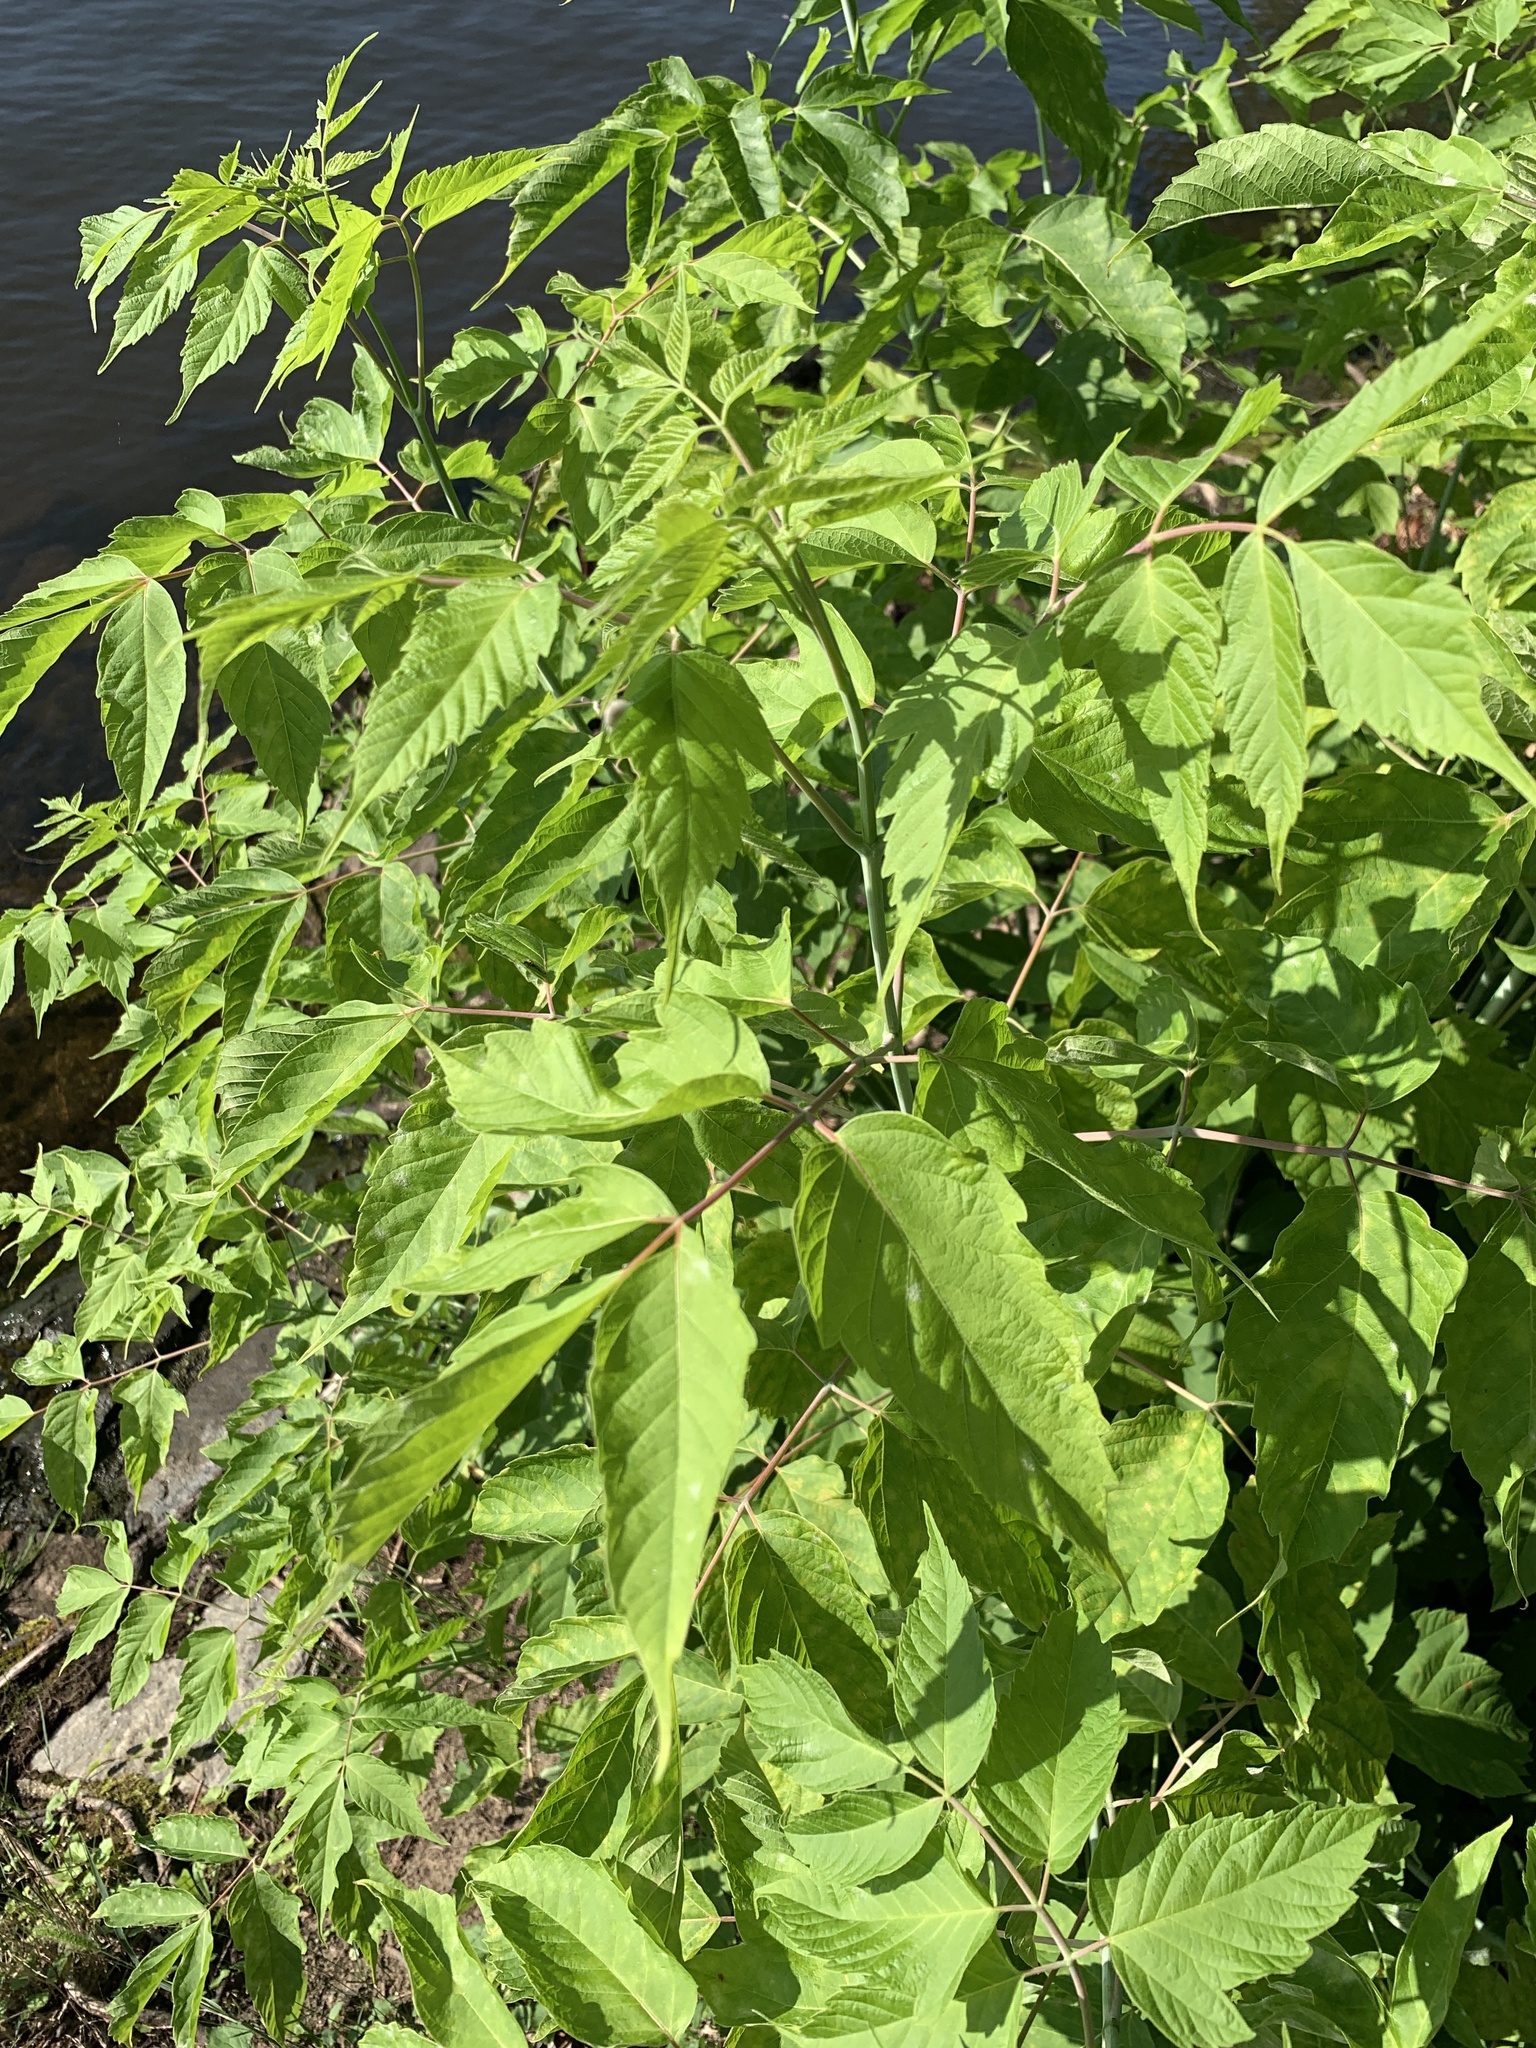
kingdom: Plantae
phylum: Tracheophyta
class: Magnoliopsida
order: Sapindales
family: Sapindaceae
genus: Acer
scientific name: Acer negundo
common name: Ashleaf maple
